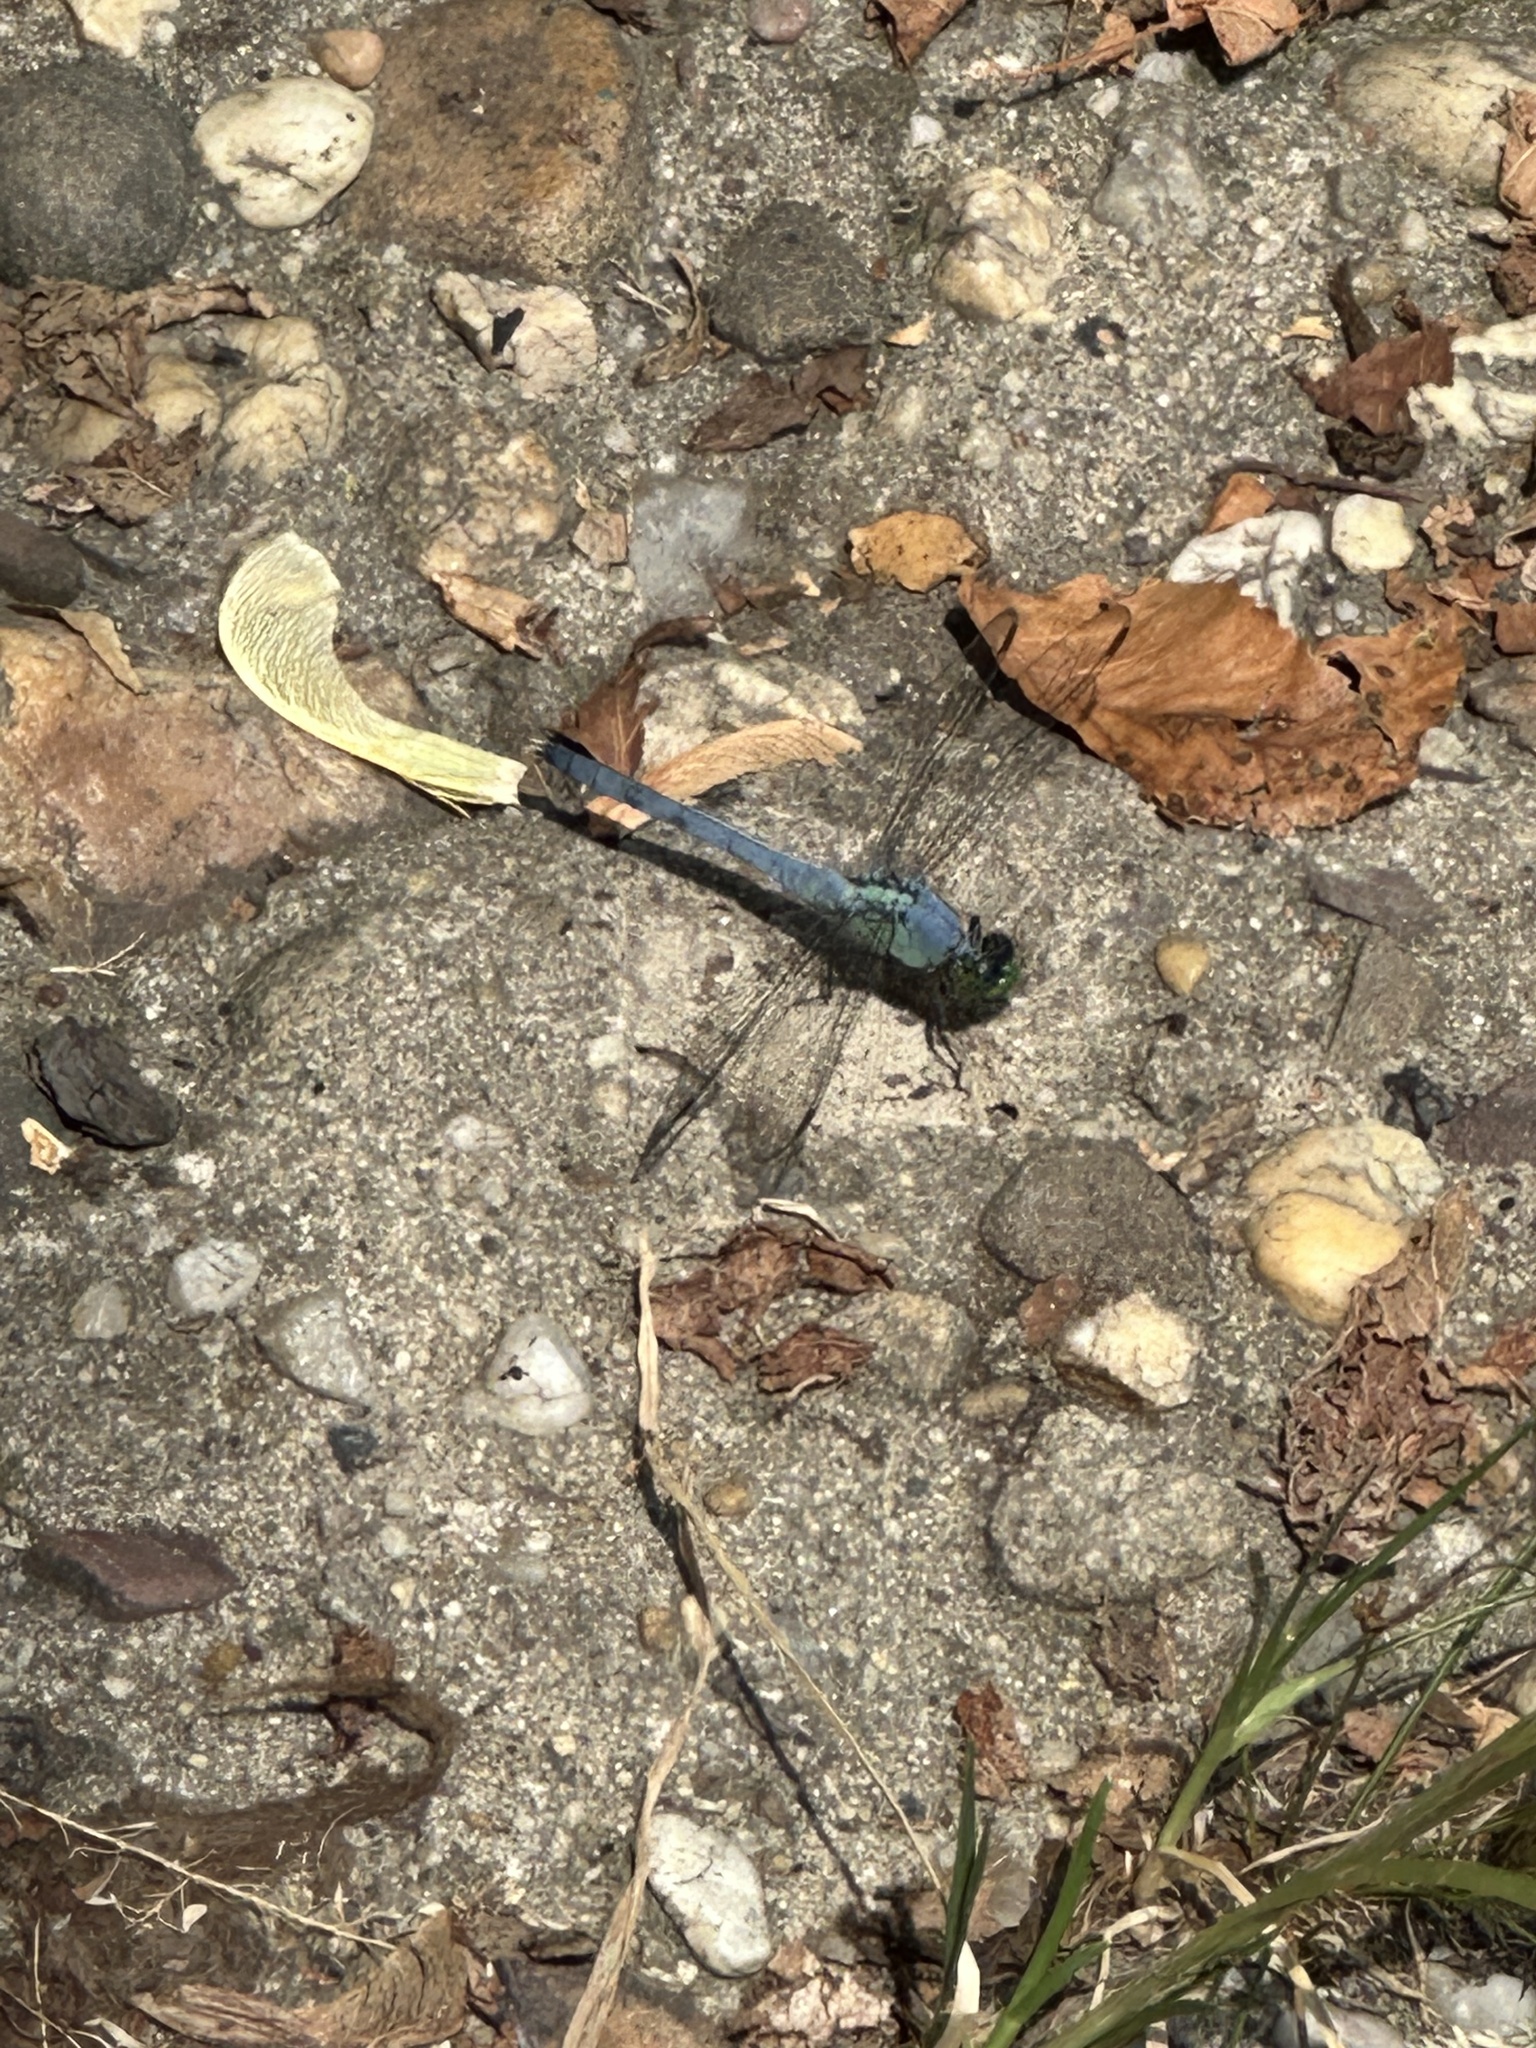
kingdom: Animalia
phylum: Arthropoda
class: Insecta
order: Odonata
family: Libellulidae
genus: Erythemis
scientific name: Erythemis simplicicollis
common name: Eastern pondhawk
